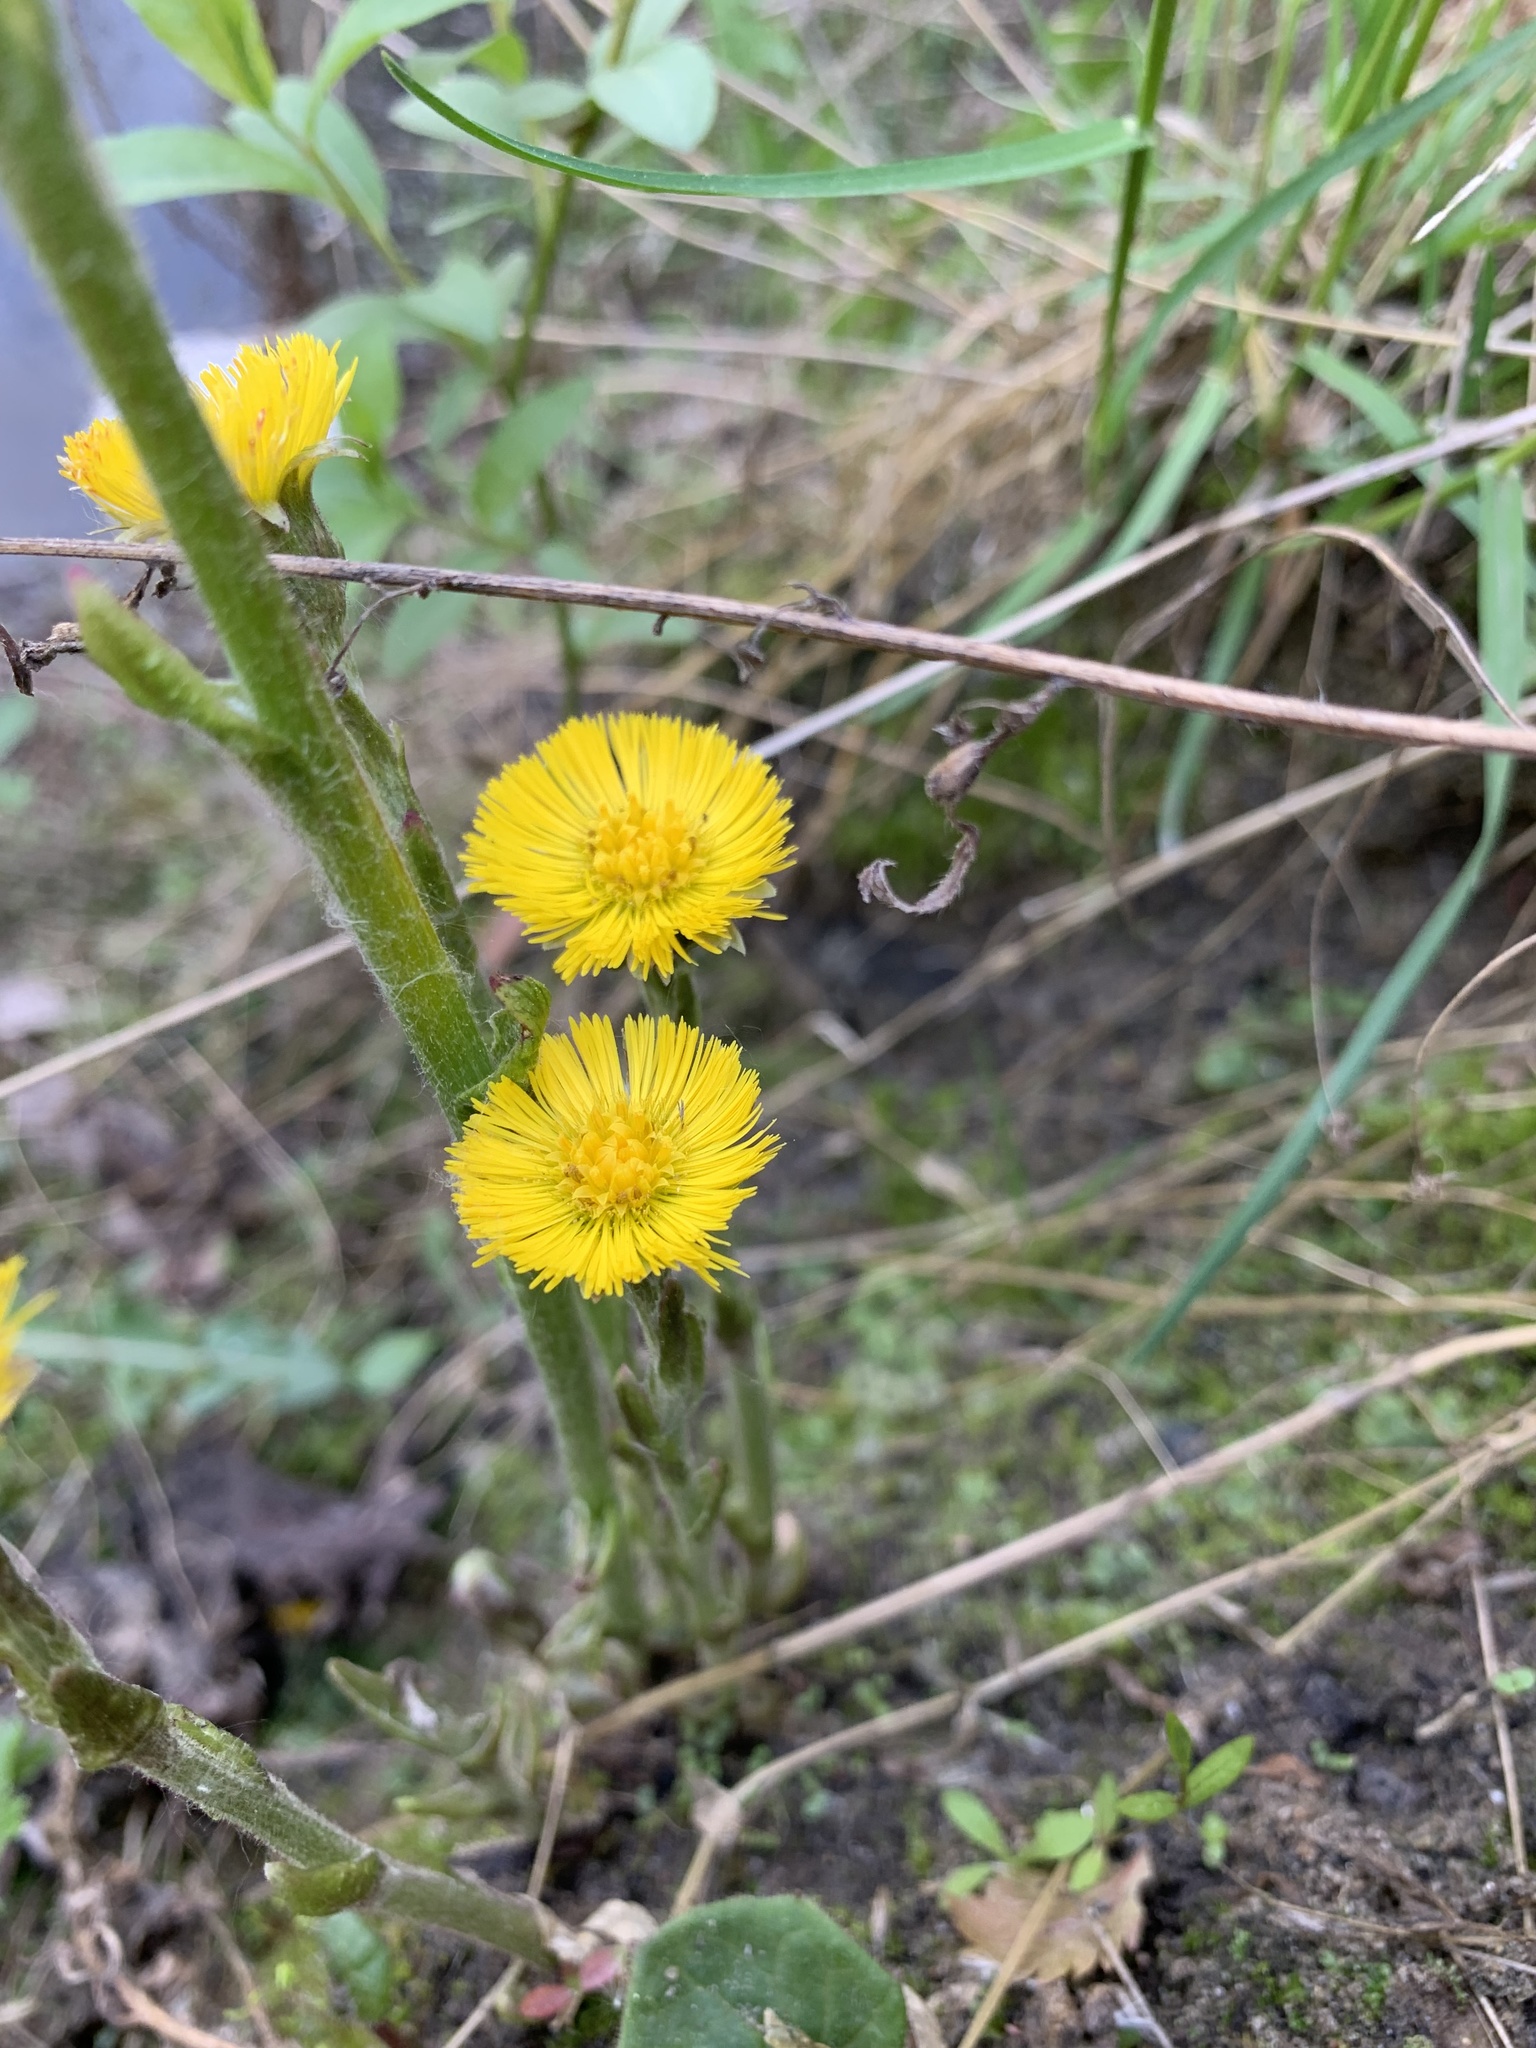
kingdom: Plantae
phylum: Tracheophyta
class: Magnoliopsida
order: Asterales
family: Asteraceae
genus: Tussilago
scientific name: Tussilago farfara
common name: Coltsfoot
